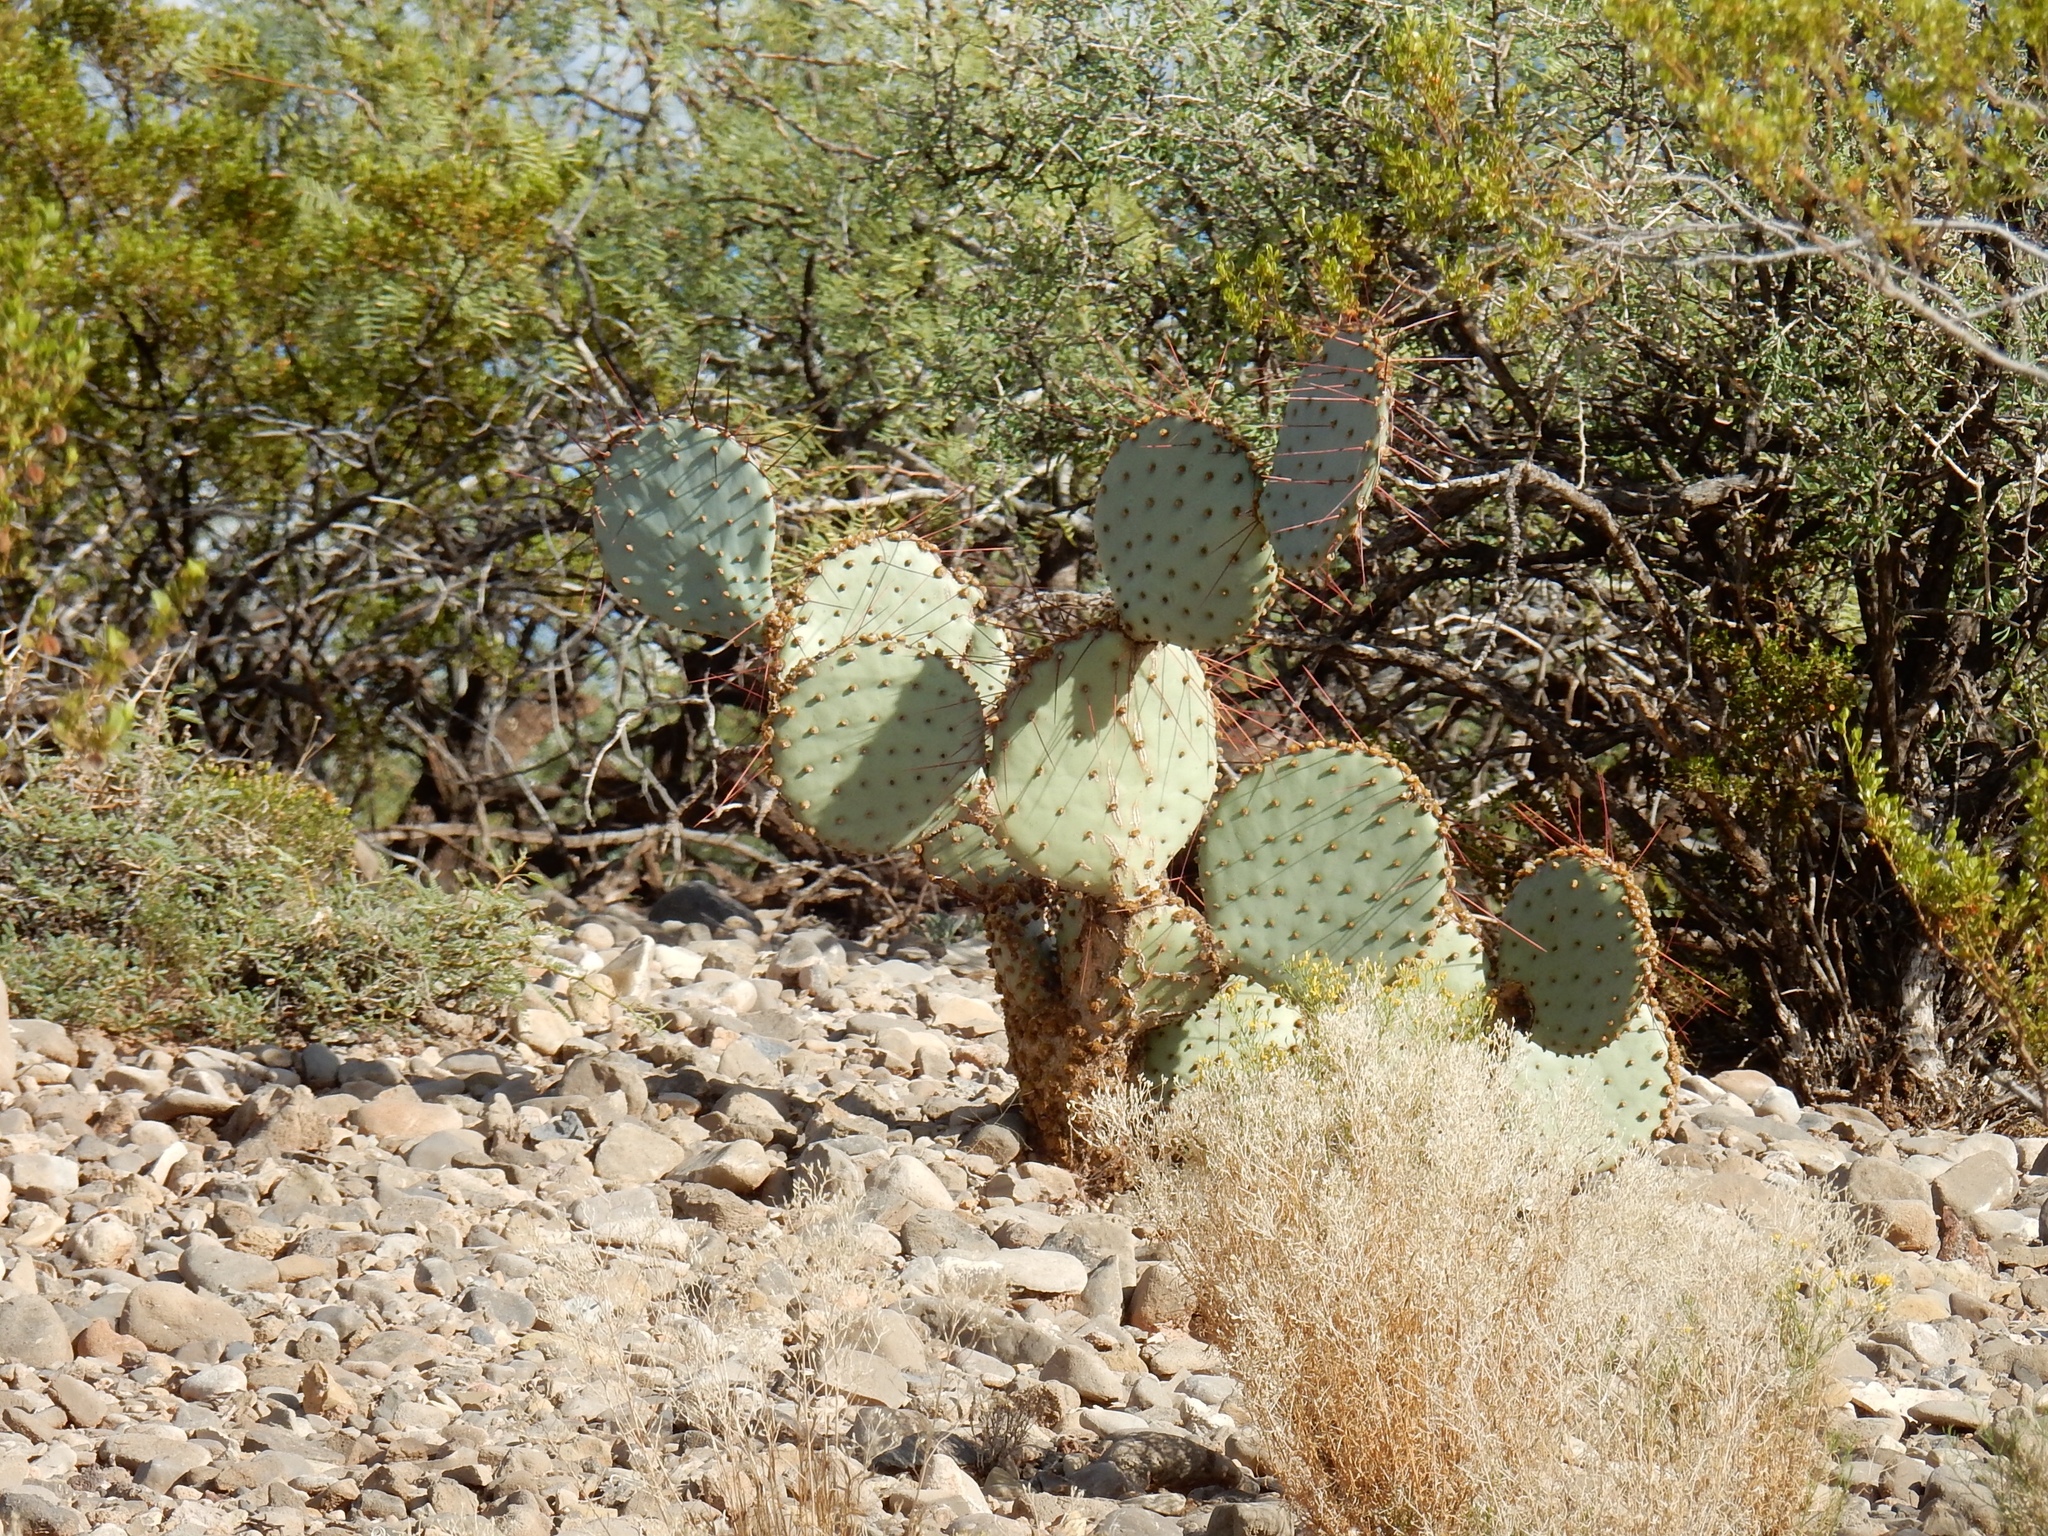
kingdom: Plantae
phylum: Tracheophyta
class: Magnoliopsida
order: Caryophyllales
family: Cactaceae
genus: Opuntia
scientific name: Opuntia macrocentra
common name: Purple prickly-pear
